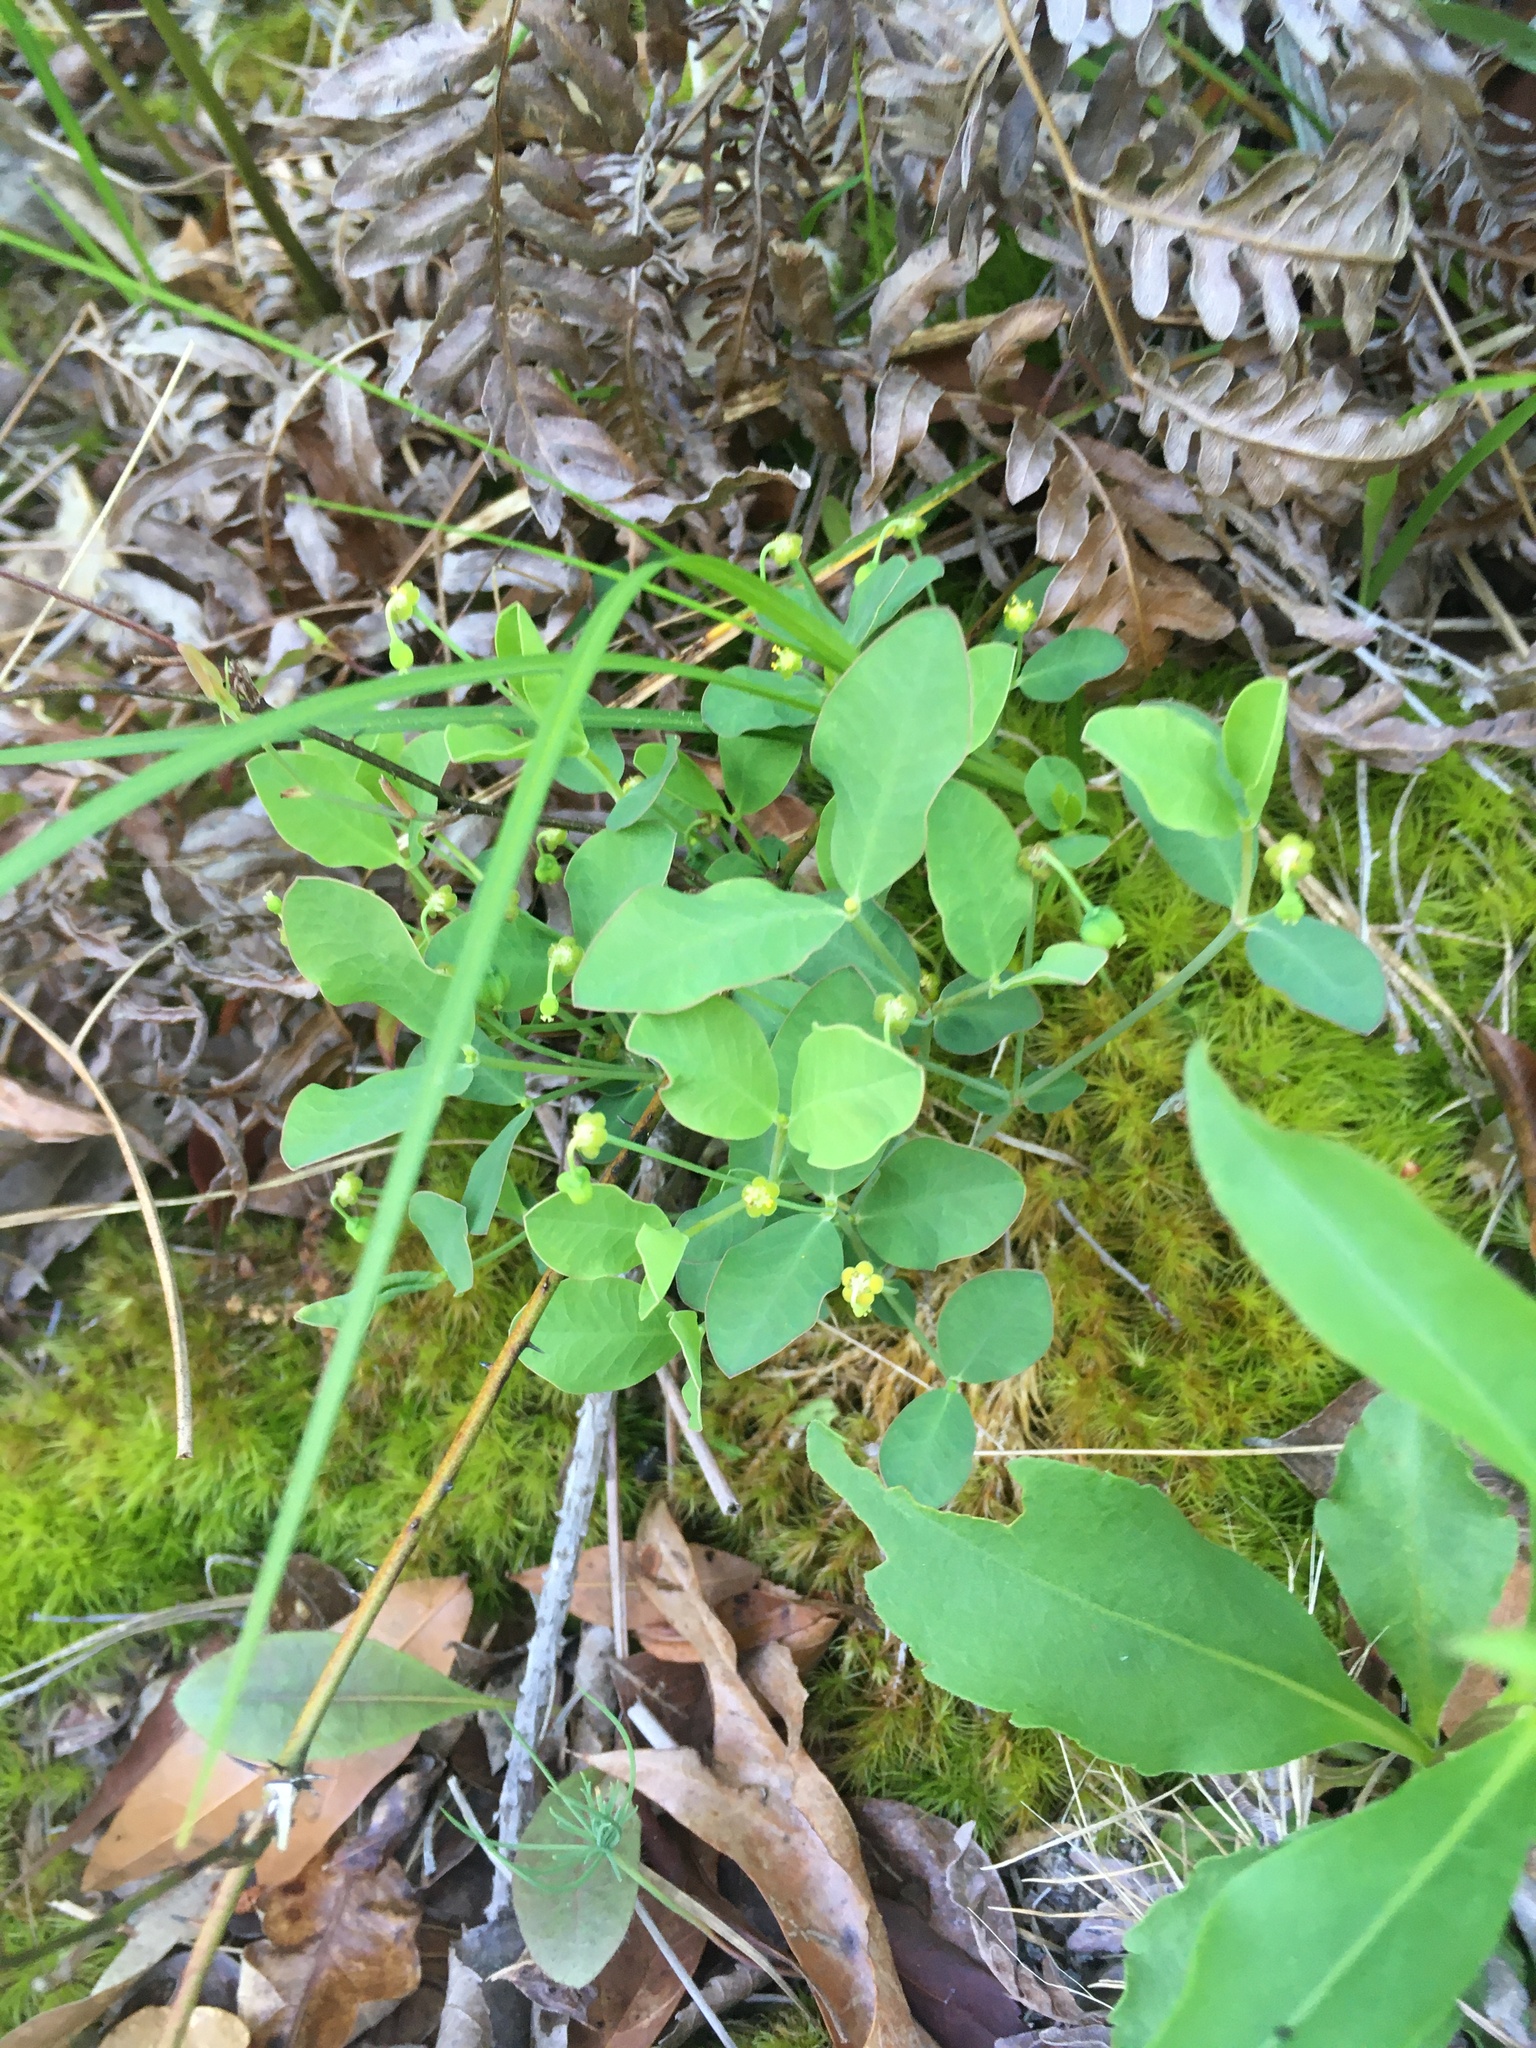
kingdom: Plantae
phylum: Tracheophyta
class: Magnoliopsida
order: Malpighiales
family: Euphorbiaceae
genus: Euphorbia
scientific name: Euphorbia ipecacuanhae
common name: Carolina ipecac
